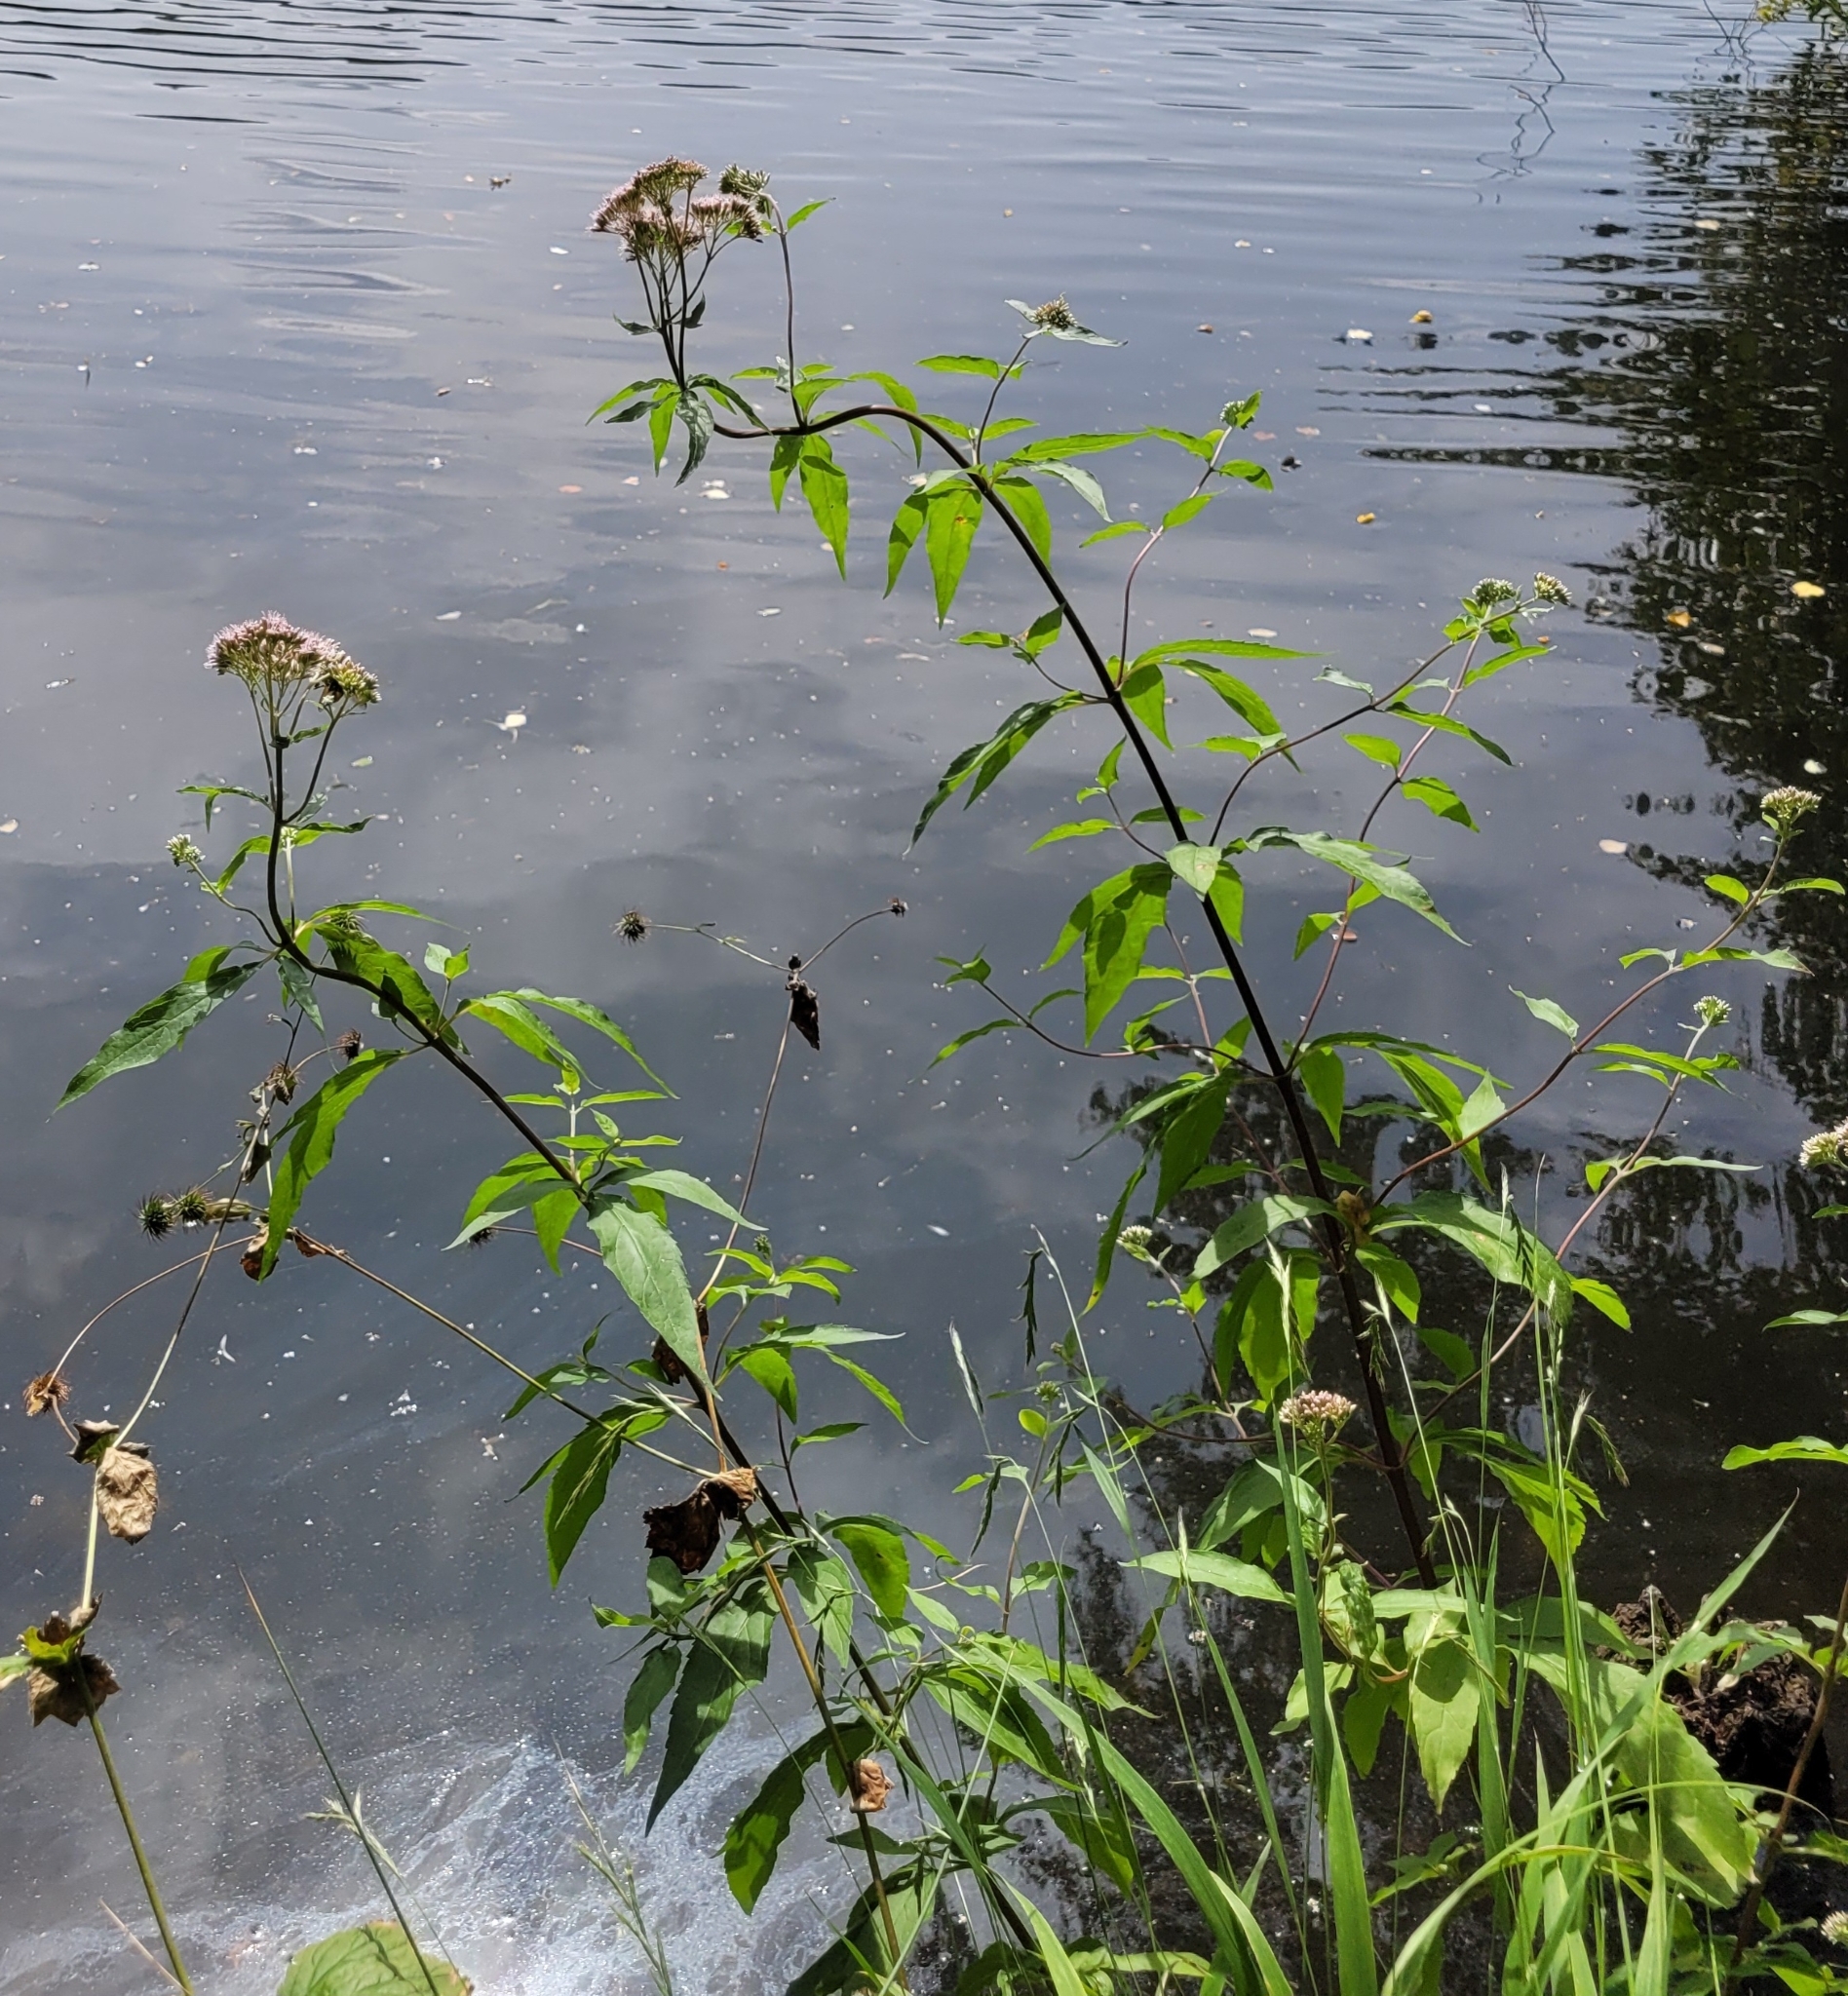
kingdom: Plantae
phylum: Tracheophyta
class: Magnoliopsida
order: Asterales
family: Asteraceae
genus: Eupatorium
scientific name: Eupatorium cannabinum
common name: Hemp-agrimony
